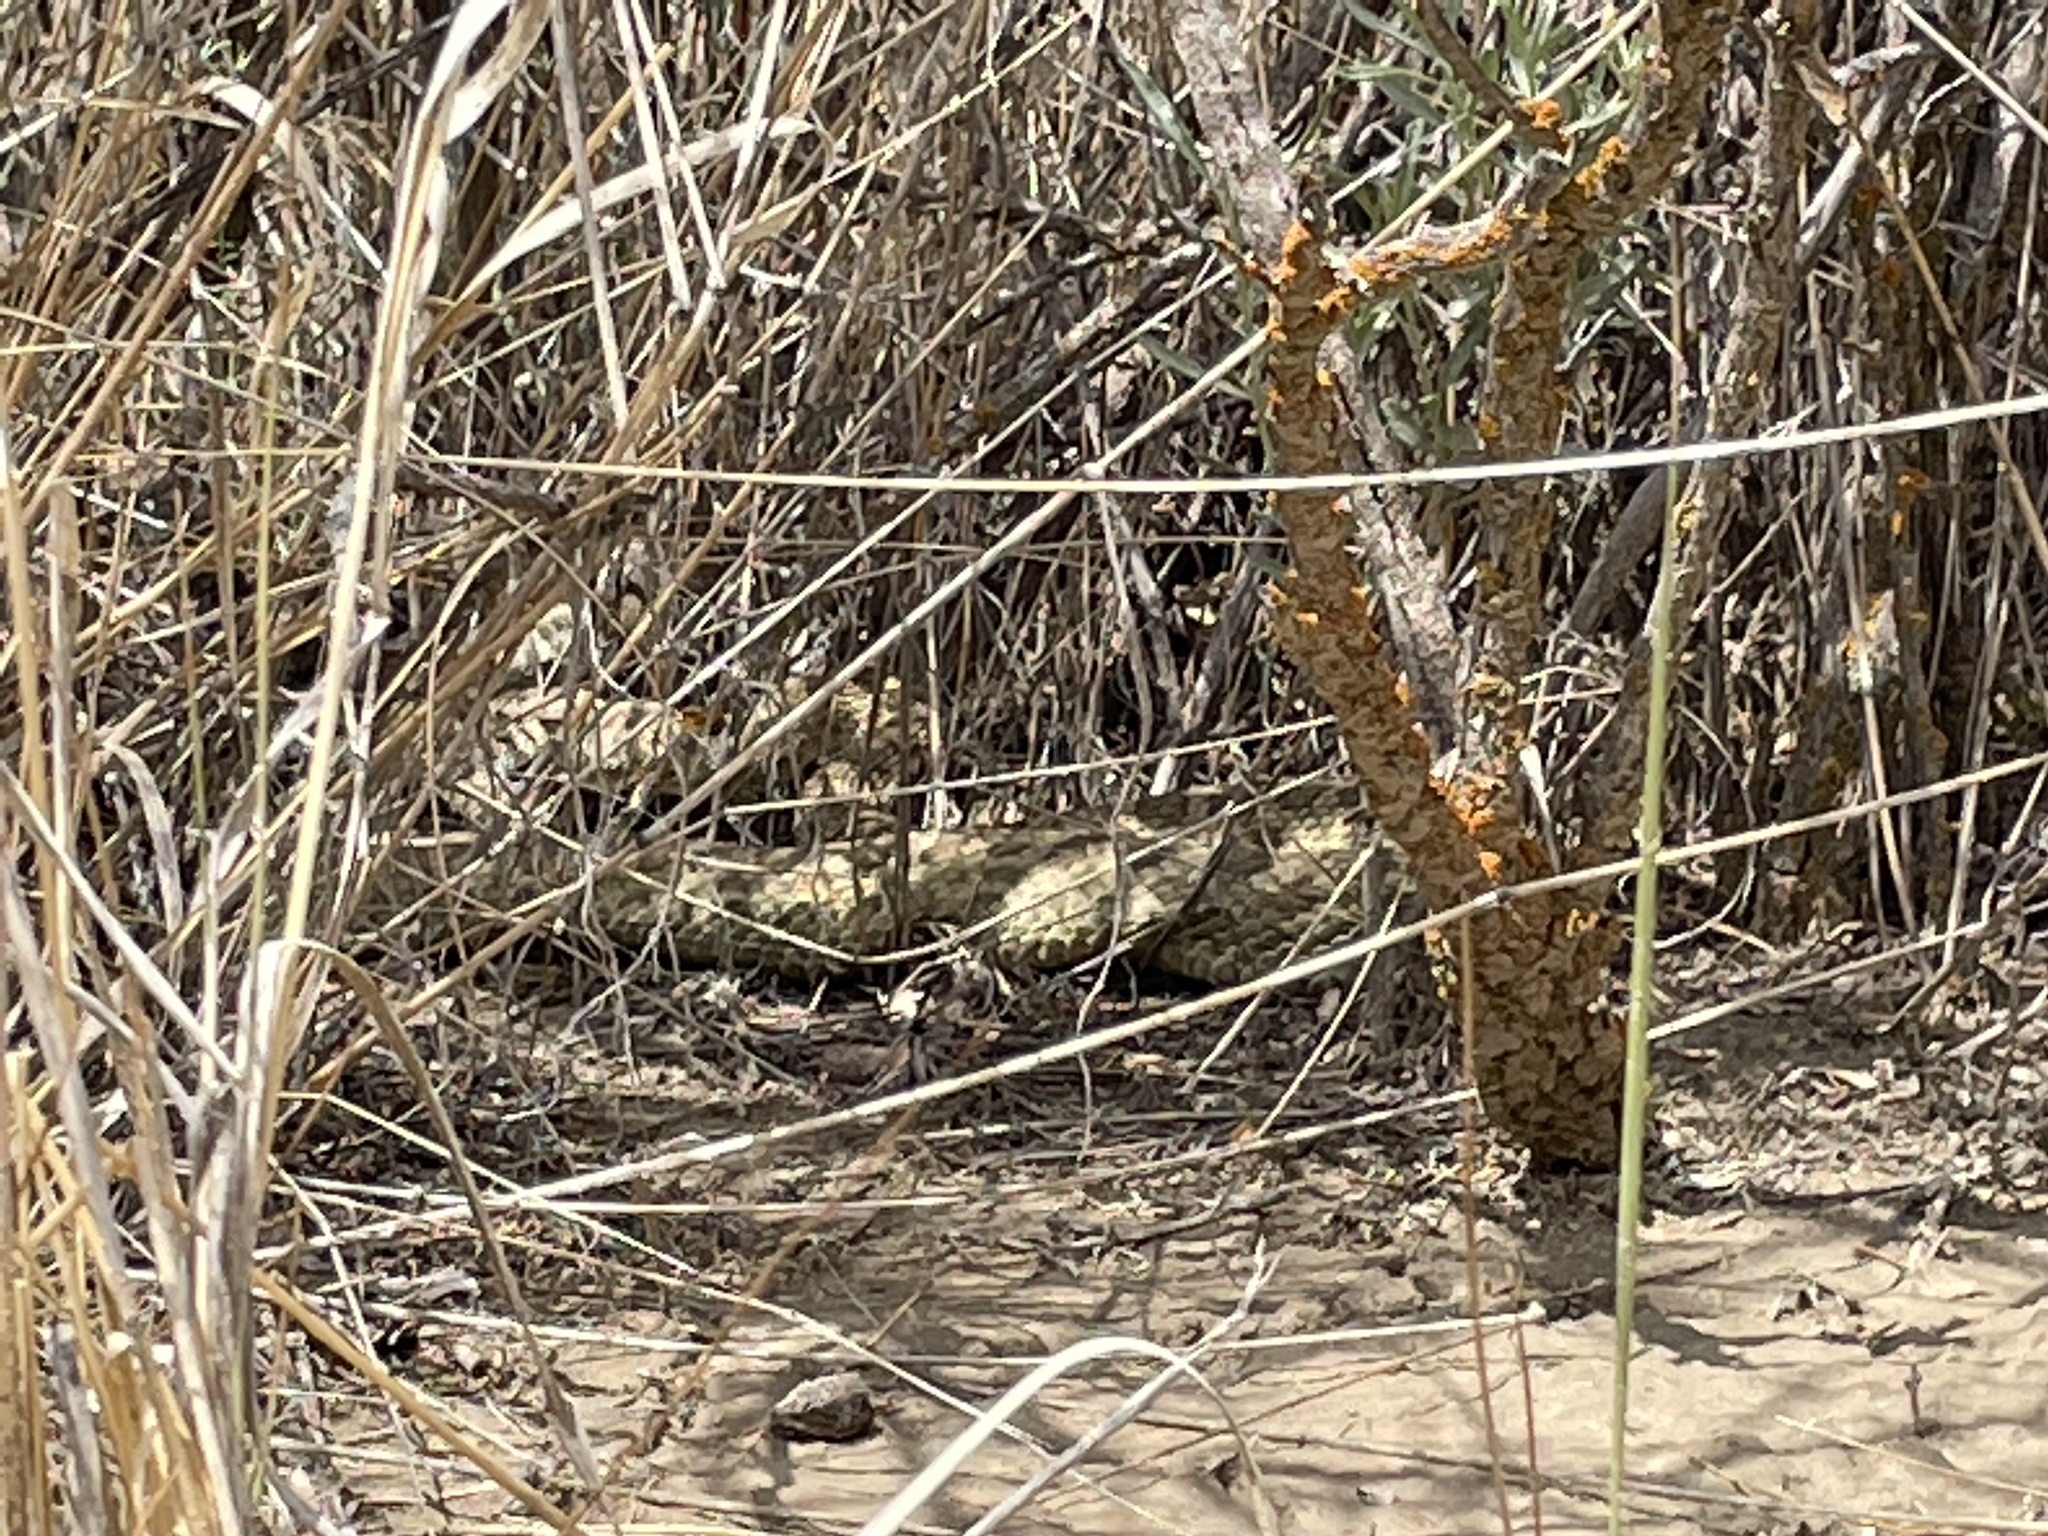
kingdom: Animalia
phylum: Chordata
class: Squamata
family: Viperidae
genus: Crotalus
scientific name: Crotalus viridis
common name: Prairie rattlesnake
